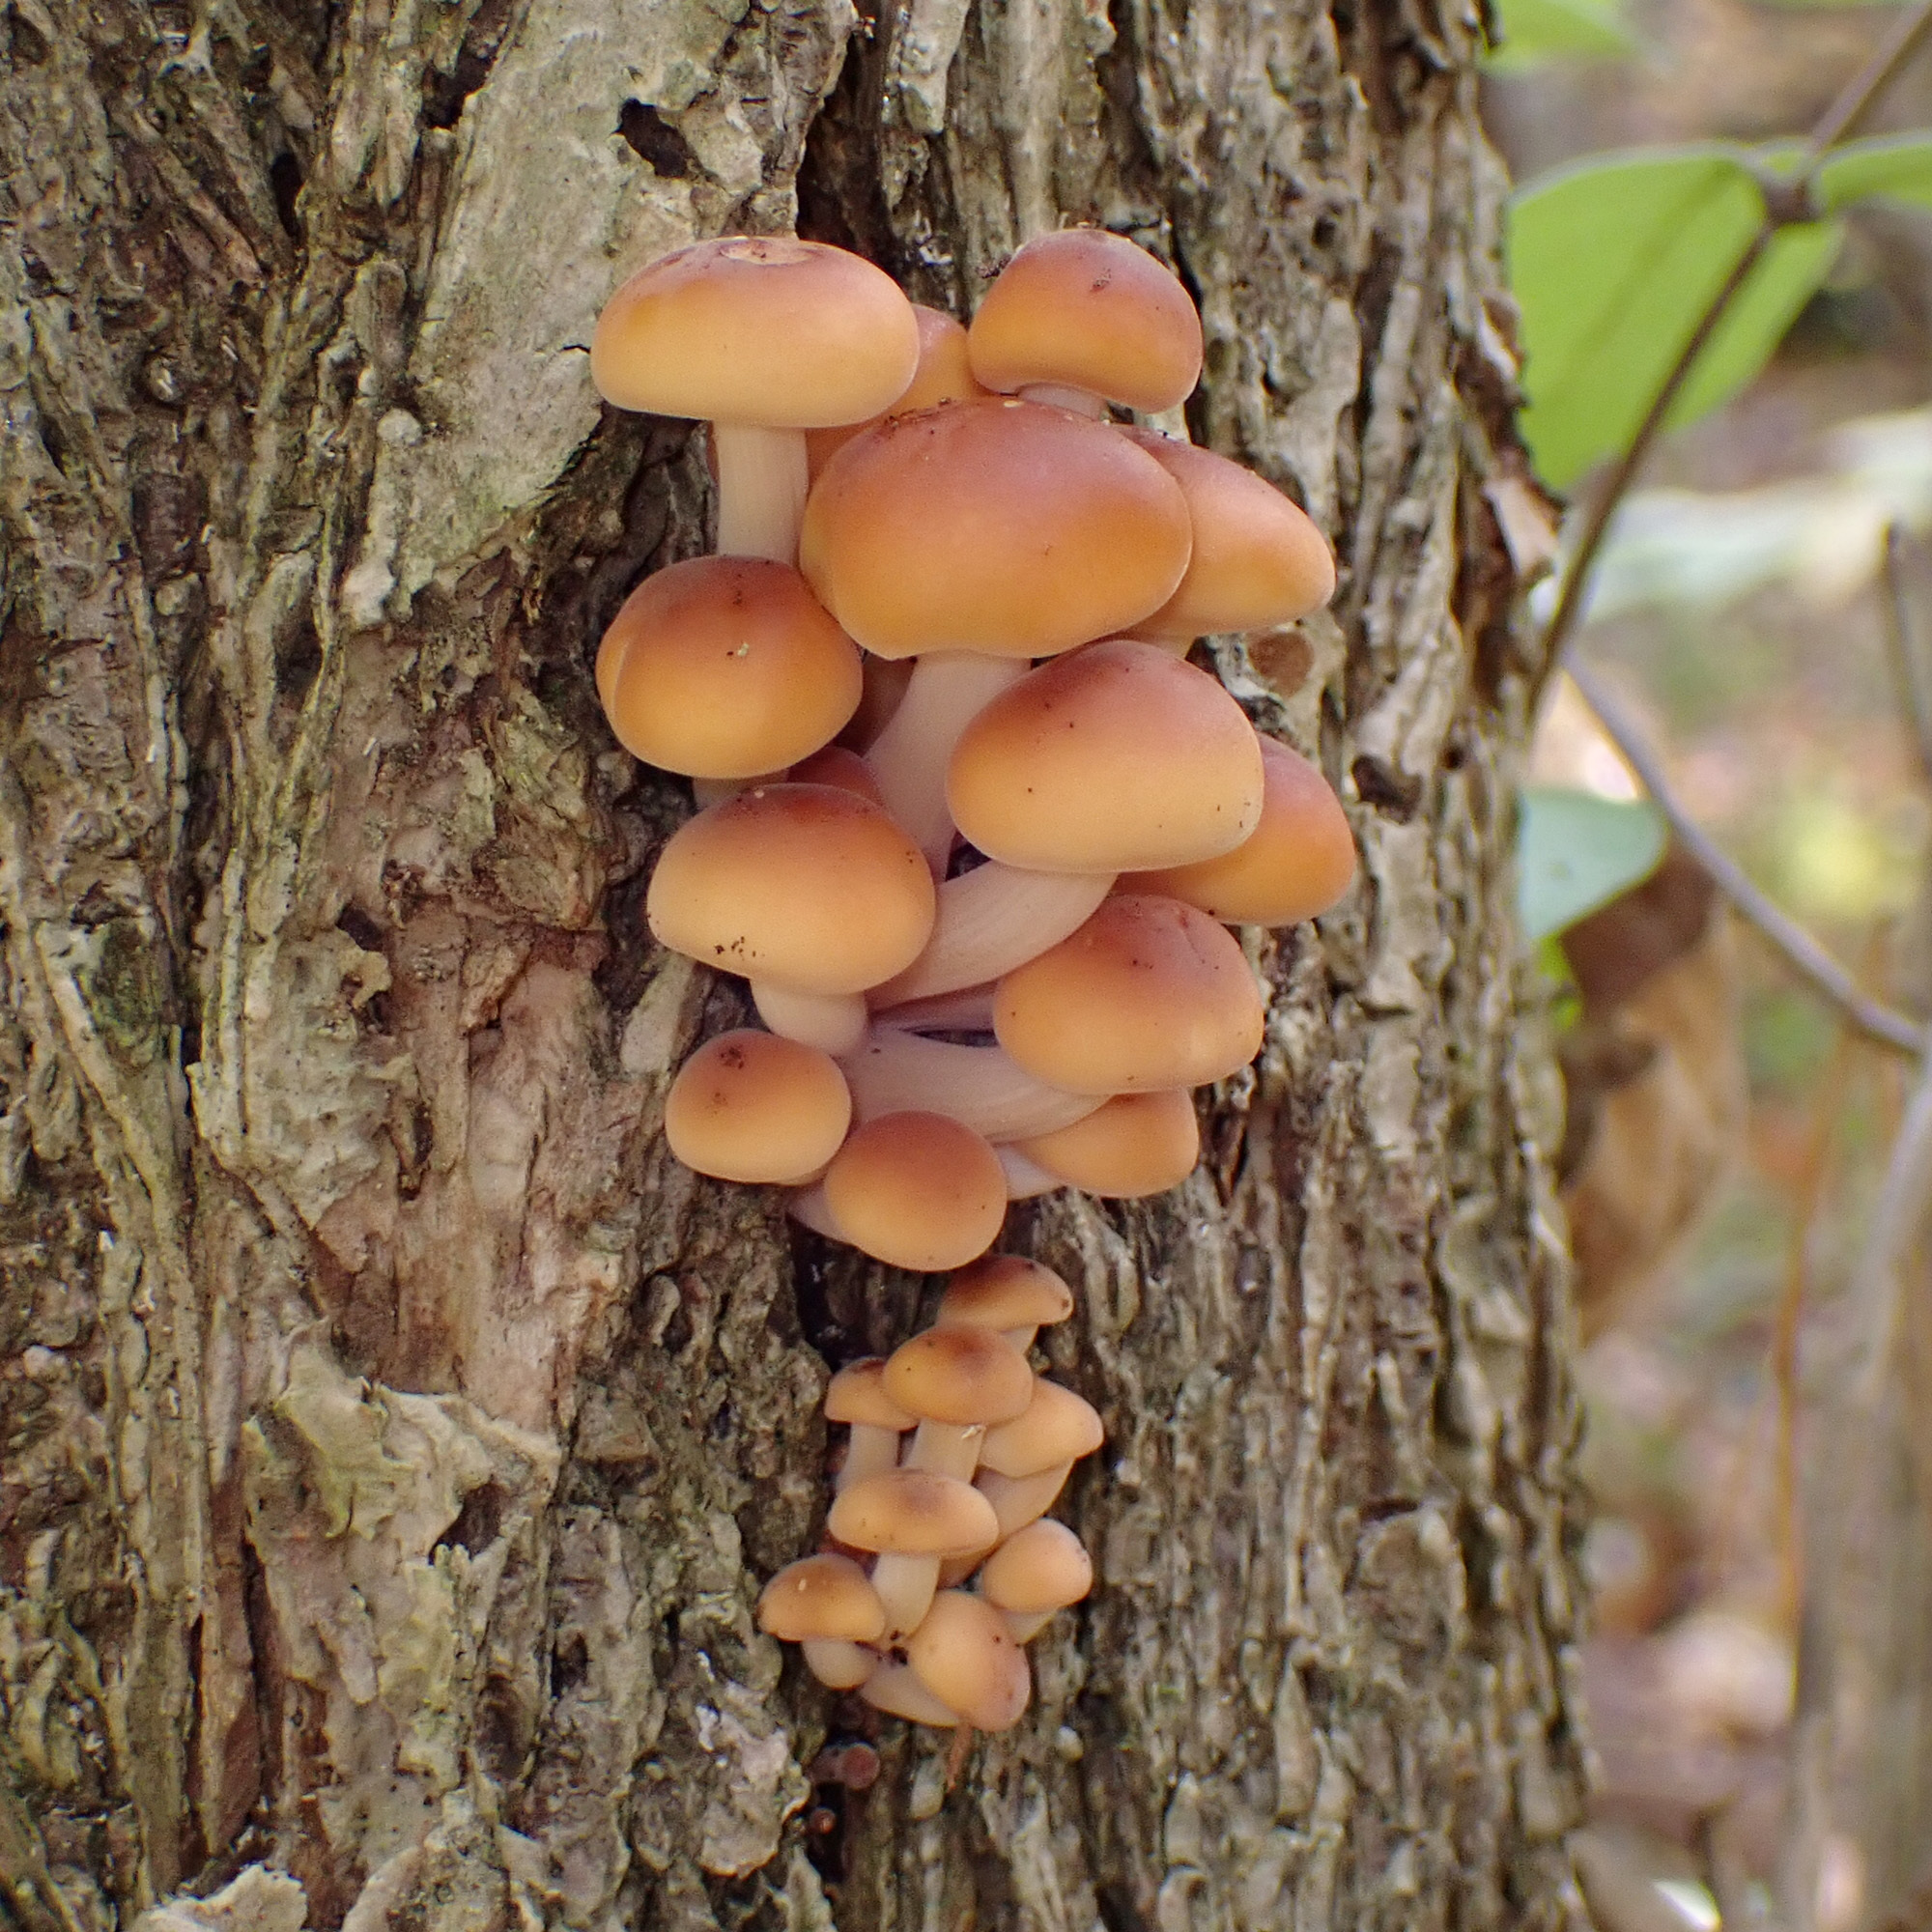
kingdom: Fungi
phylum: Basidiomycota
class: Agaricomycetes
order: Agaricales
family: Physalacriaceae
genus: Flammulina
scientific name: Flammulina velutipes
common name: Velvet shank
